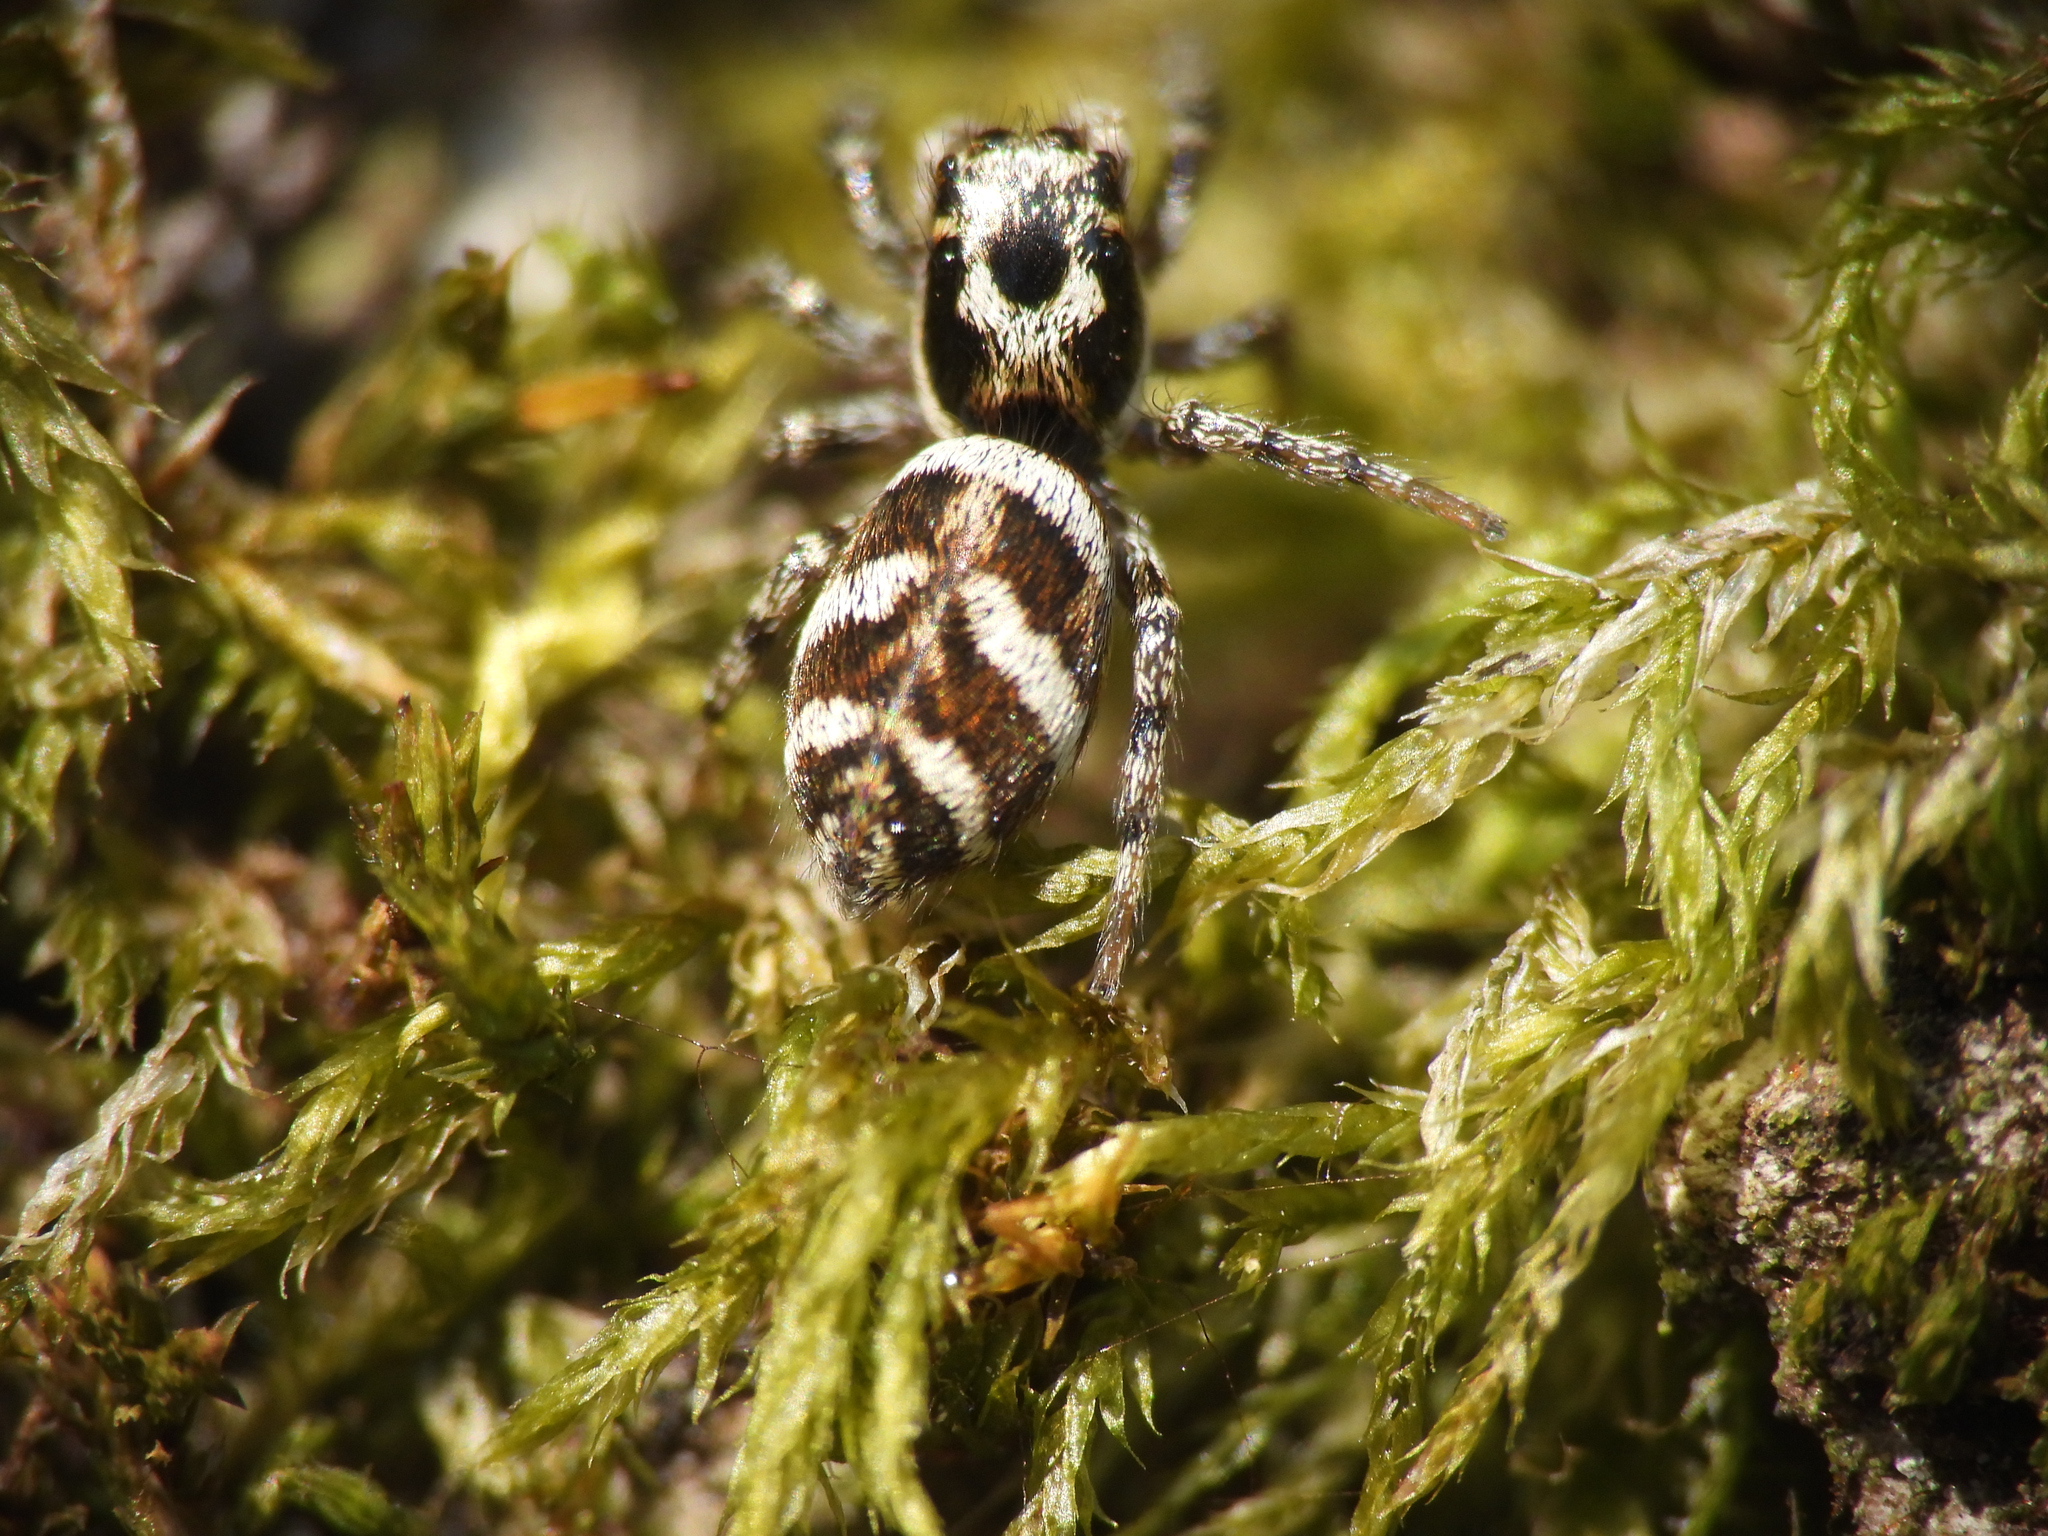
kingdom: Animalia
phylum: Arthropoda
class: Arachnida
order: Araneae
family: Salticidae
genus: Salticus
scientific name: Salticus scenicus
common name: Zebra jumper
